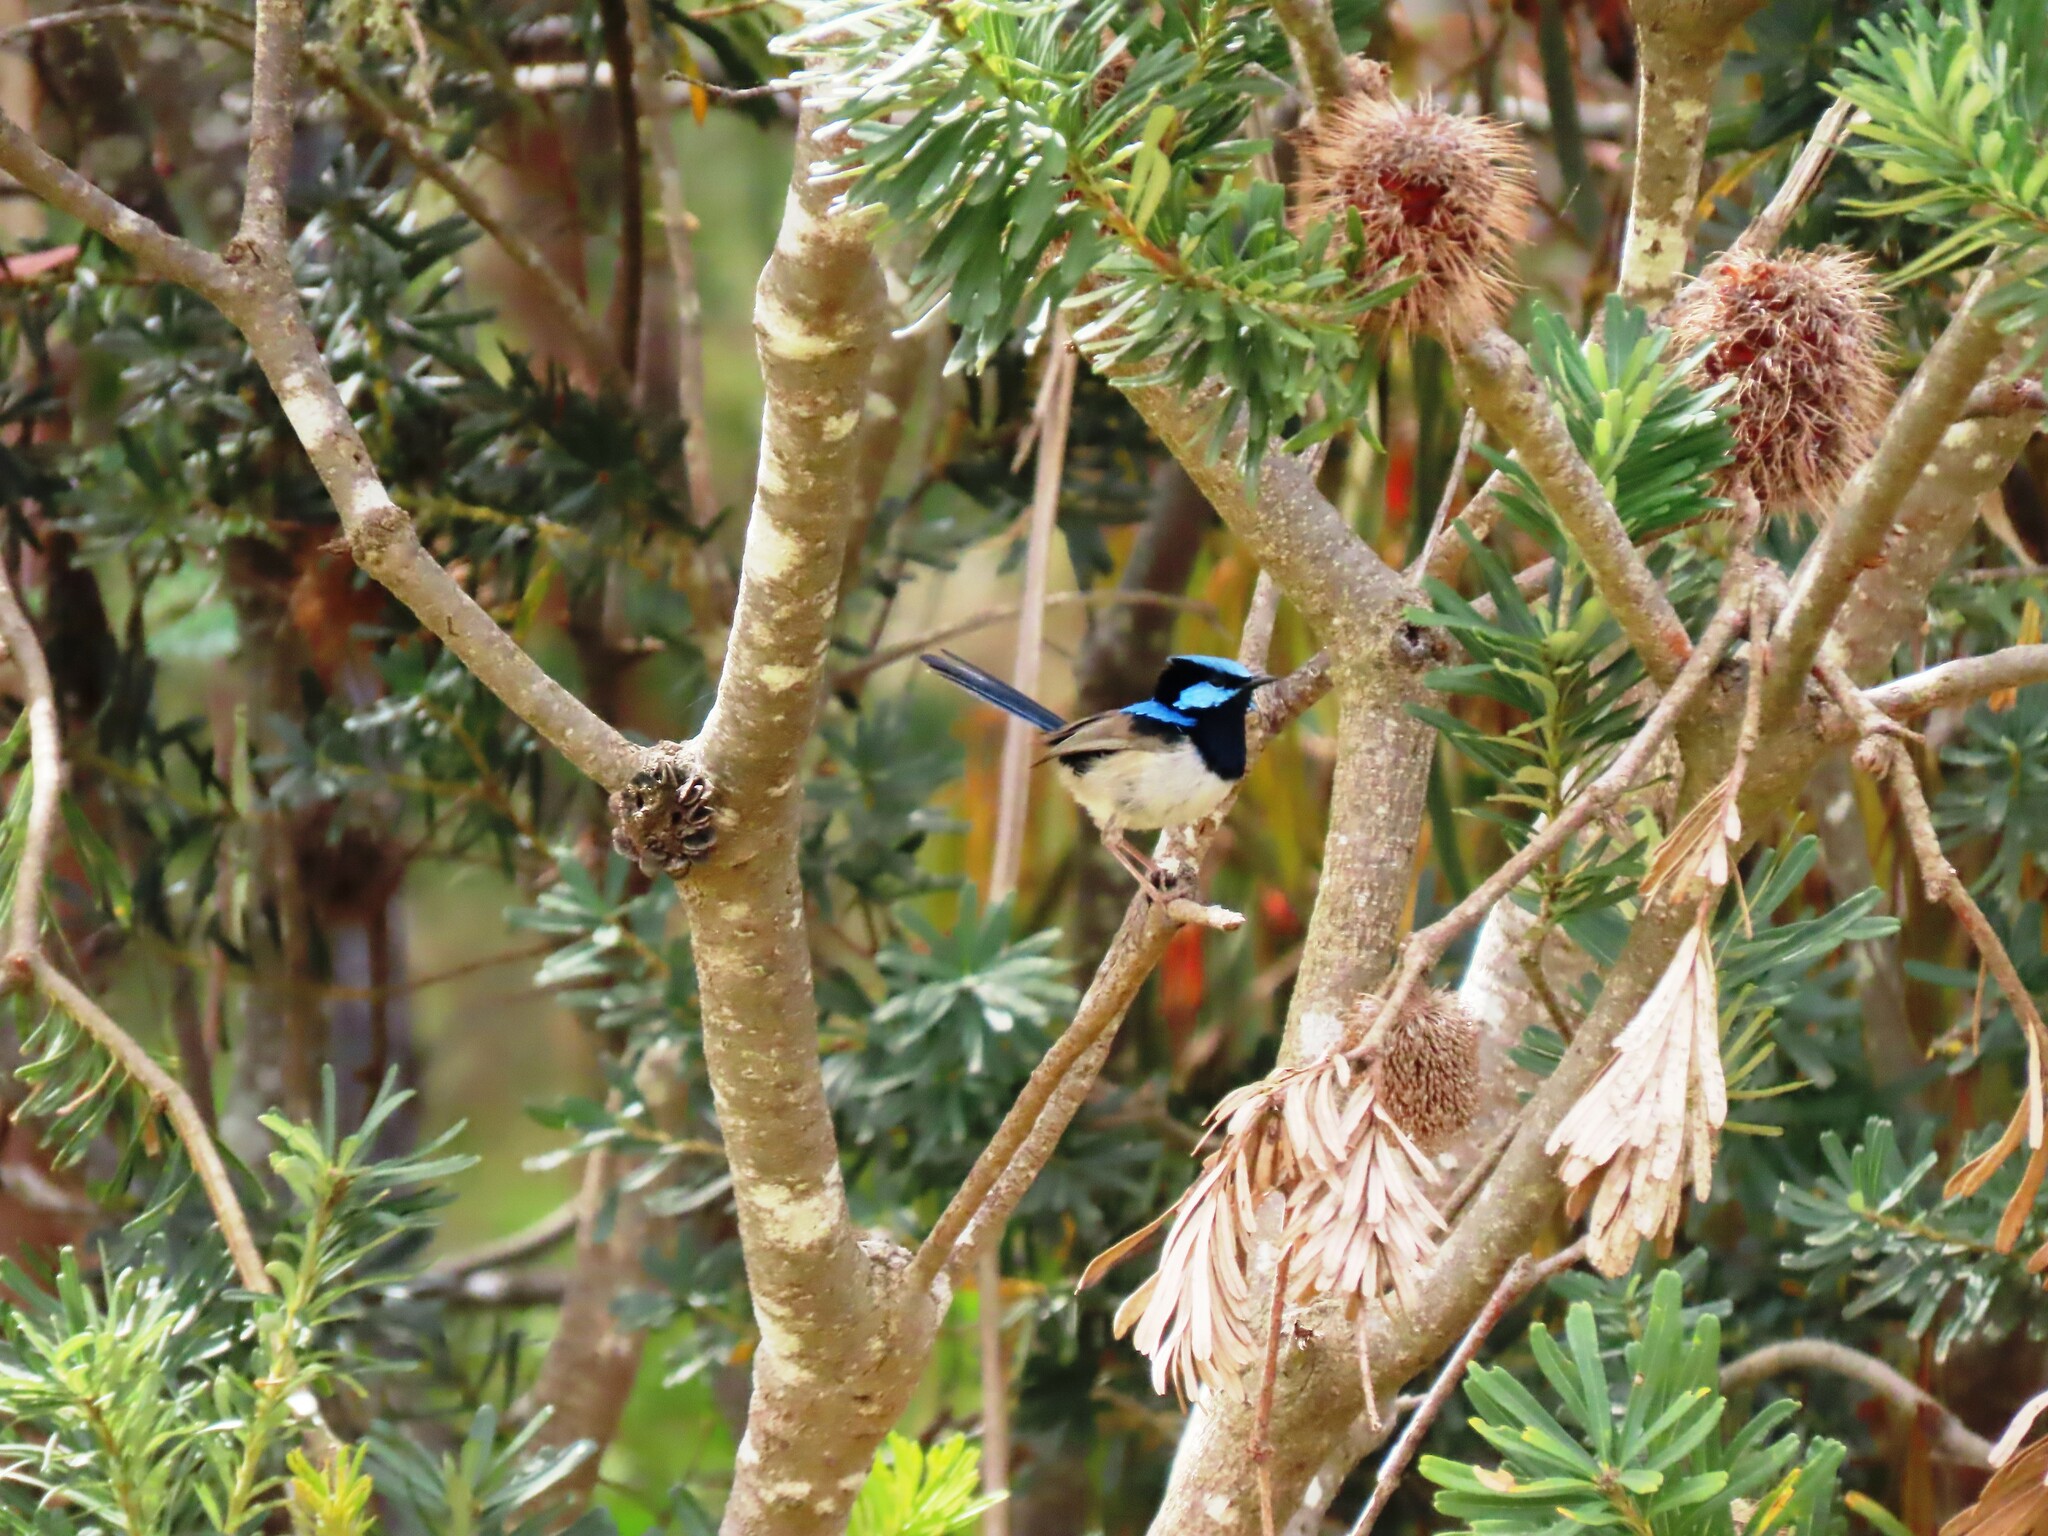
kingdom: Animalia
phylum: Chordata
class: Aves
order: Passeriformes
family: Maluridae
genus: Malurus
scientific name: Malurus cyaneus
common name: Superb fairywren
